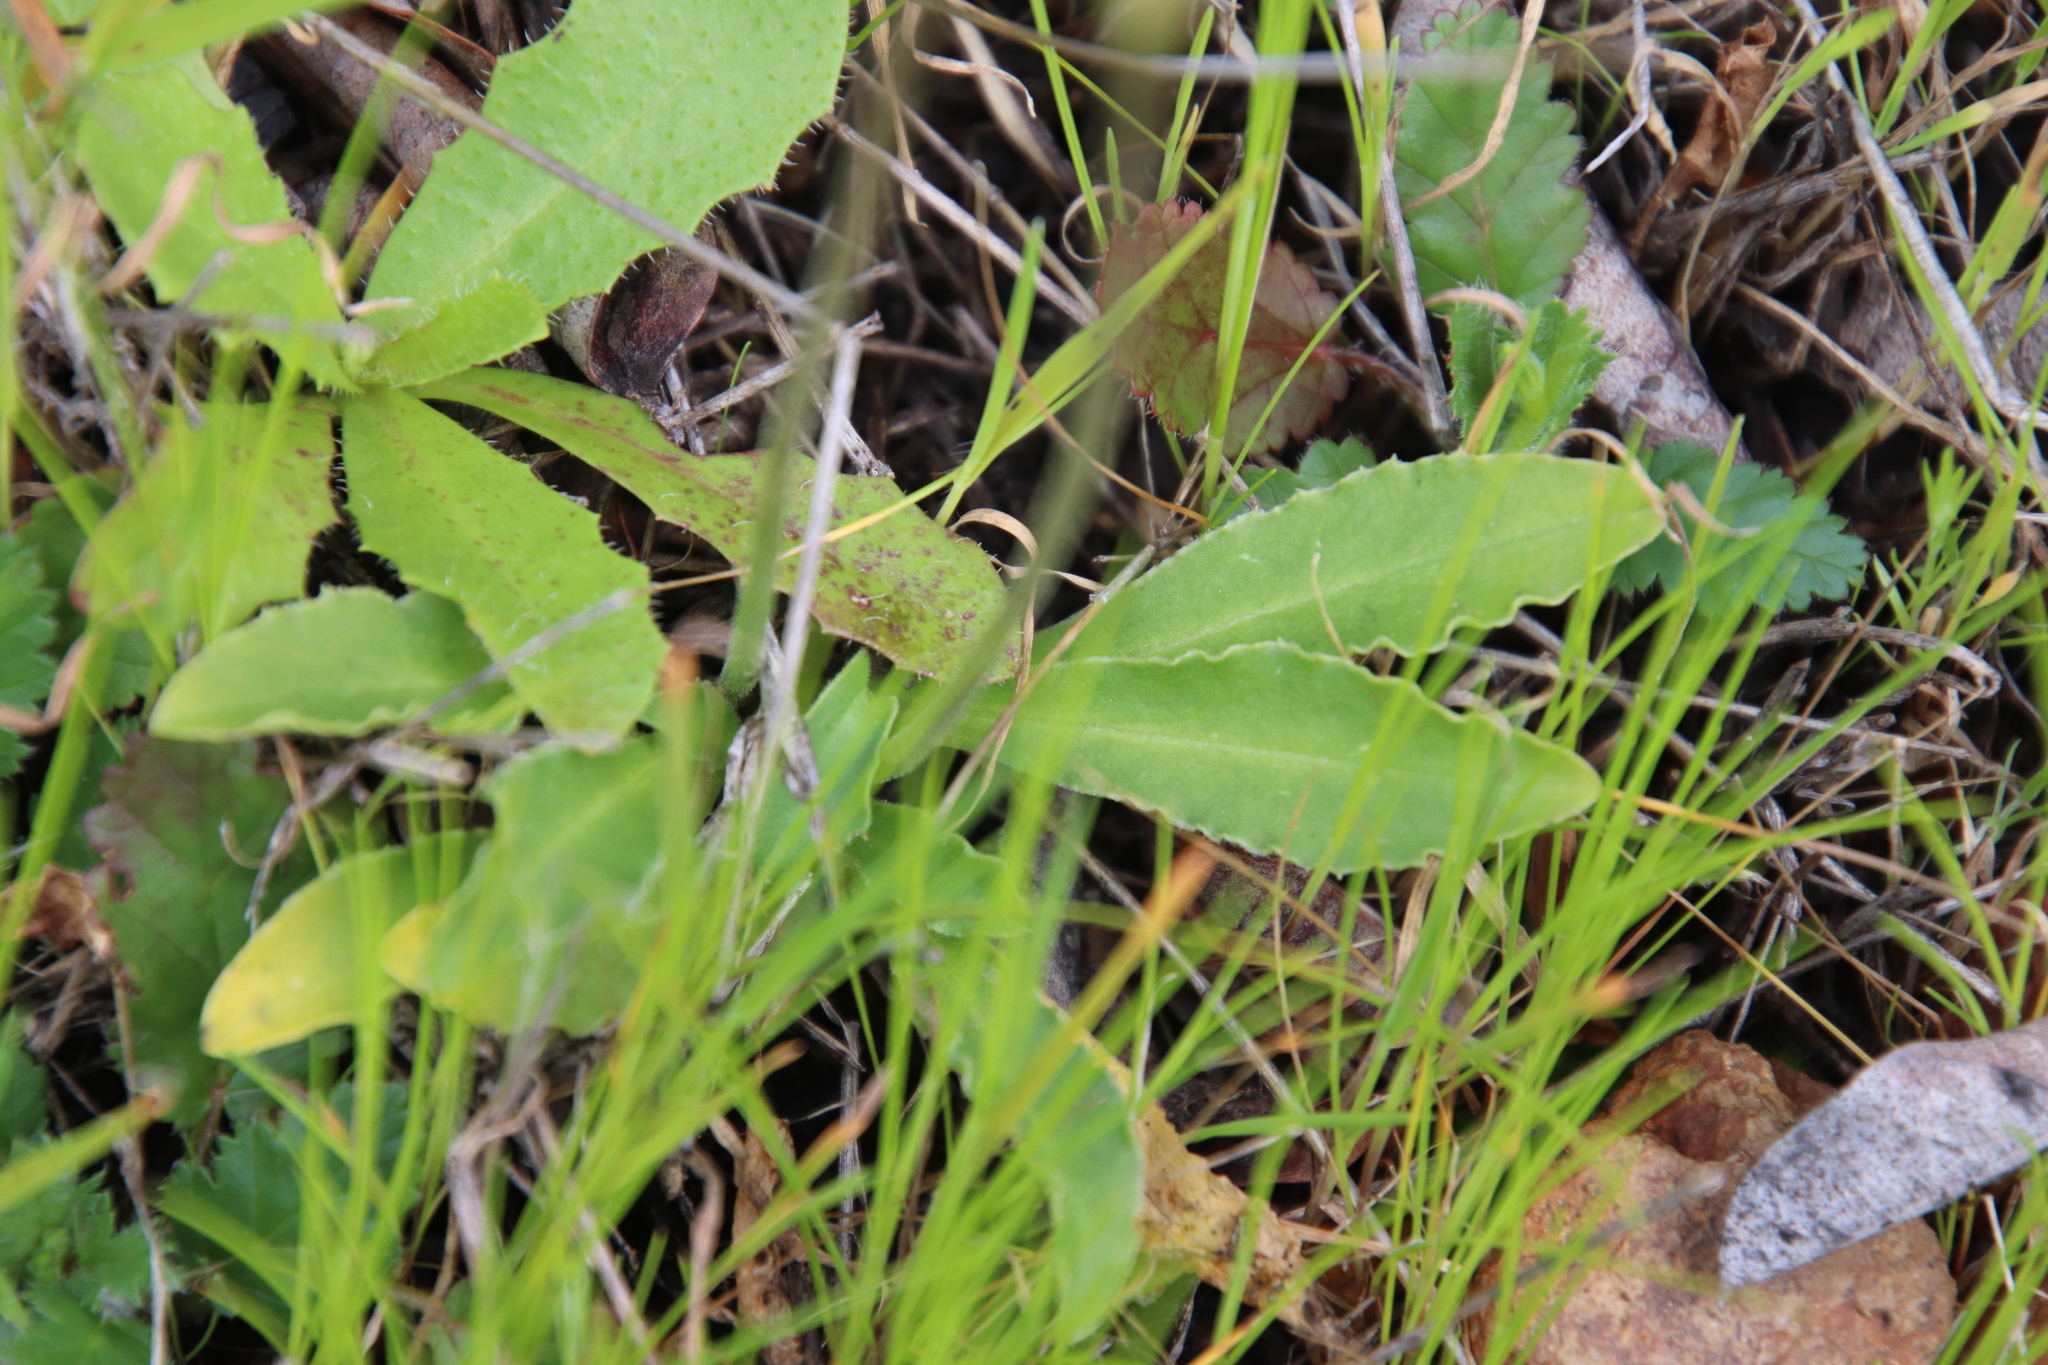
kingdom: Plantae
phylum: Tracheophyta
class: Magnoliopsida
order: Ericales
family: Primulaceae
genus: Dodecatheon
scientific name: Dodecatheon clevelandii
